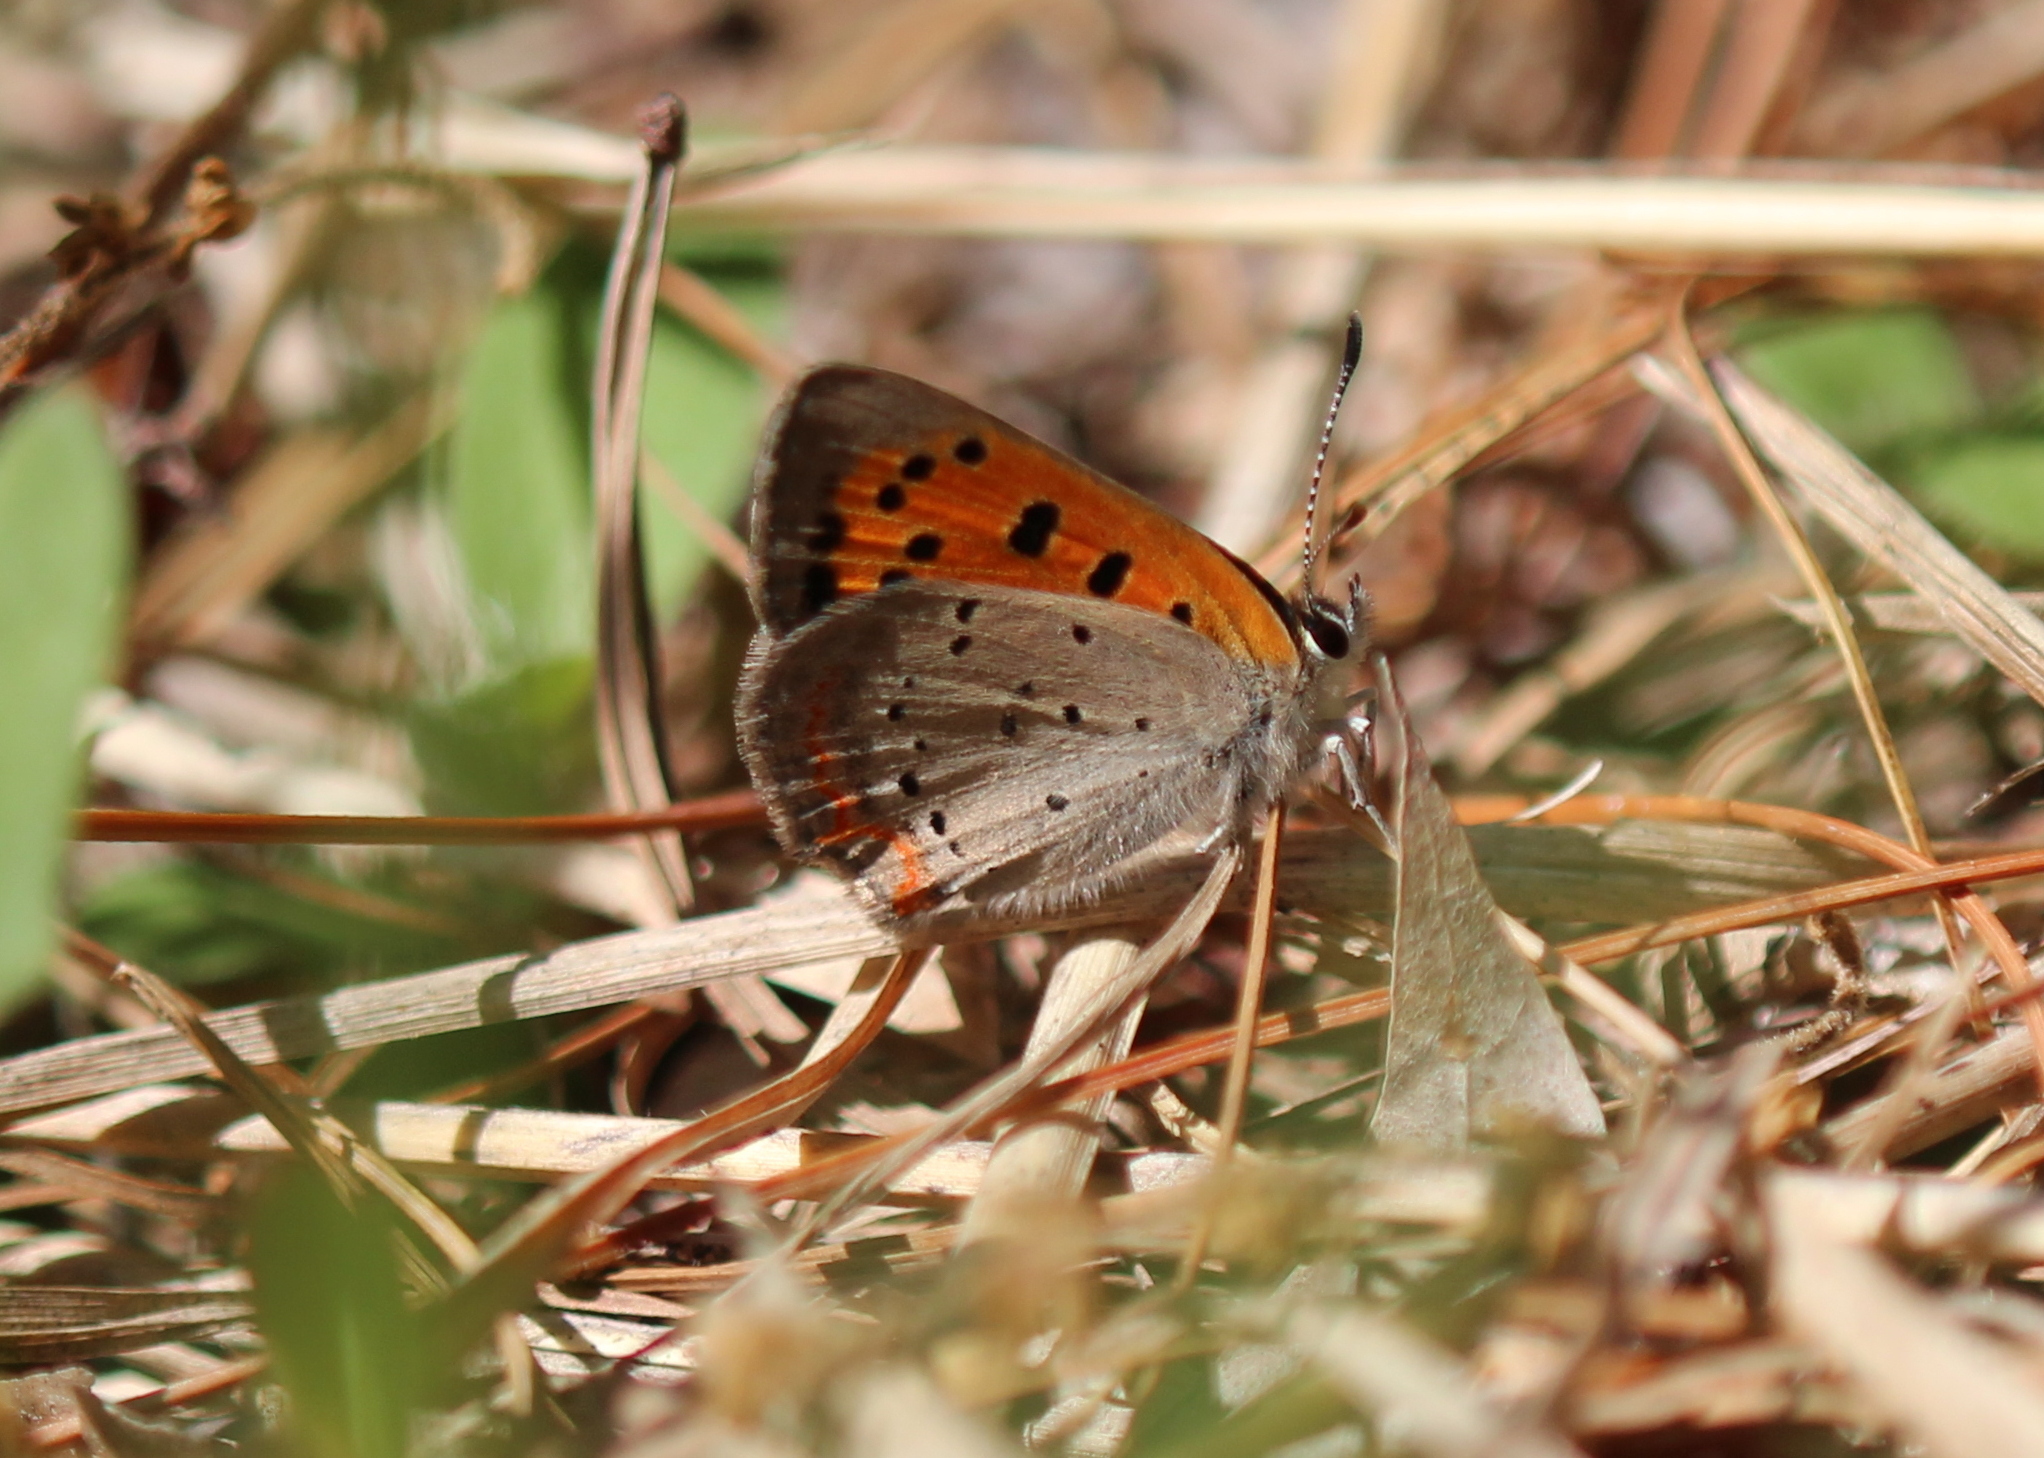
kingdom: Animalia
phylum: Arthropoda
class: Insecta
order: Lepidoptera
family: Lycaenidae
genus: Lycaena
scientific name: Lycaena hypophlaeas
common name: American copper
